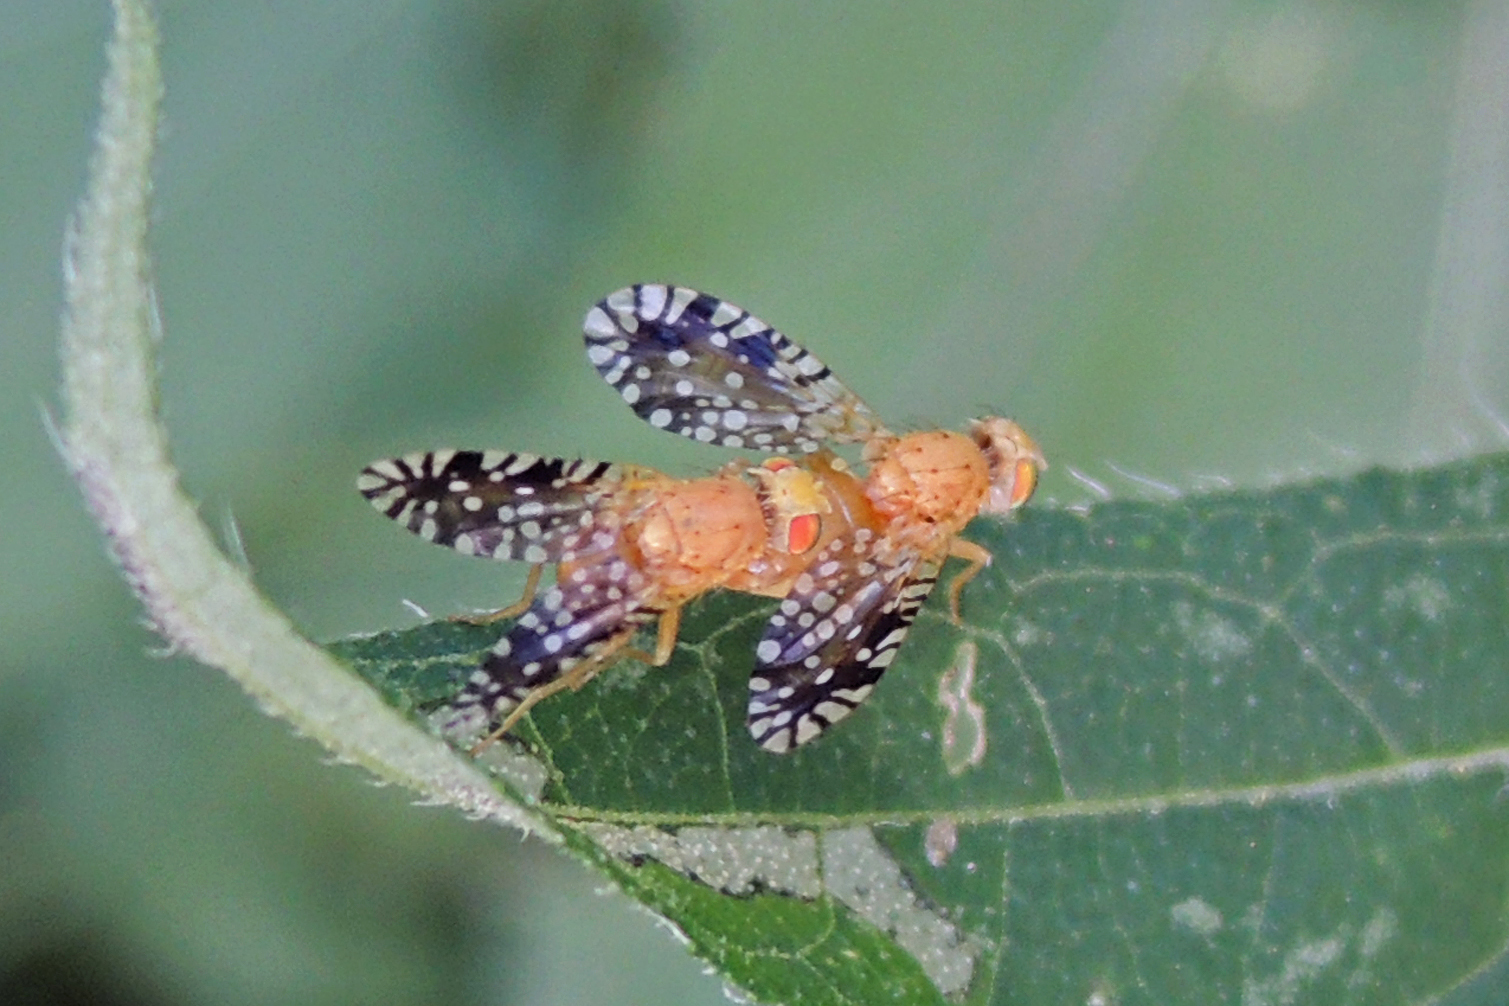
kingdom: Animalia
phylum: Arthropoda
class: Insecta
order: Diptera
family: Tephritidae
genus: Euaresta
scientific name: Euaresta festiva
